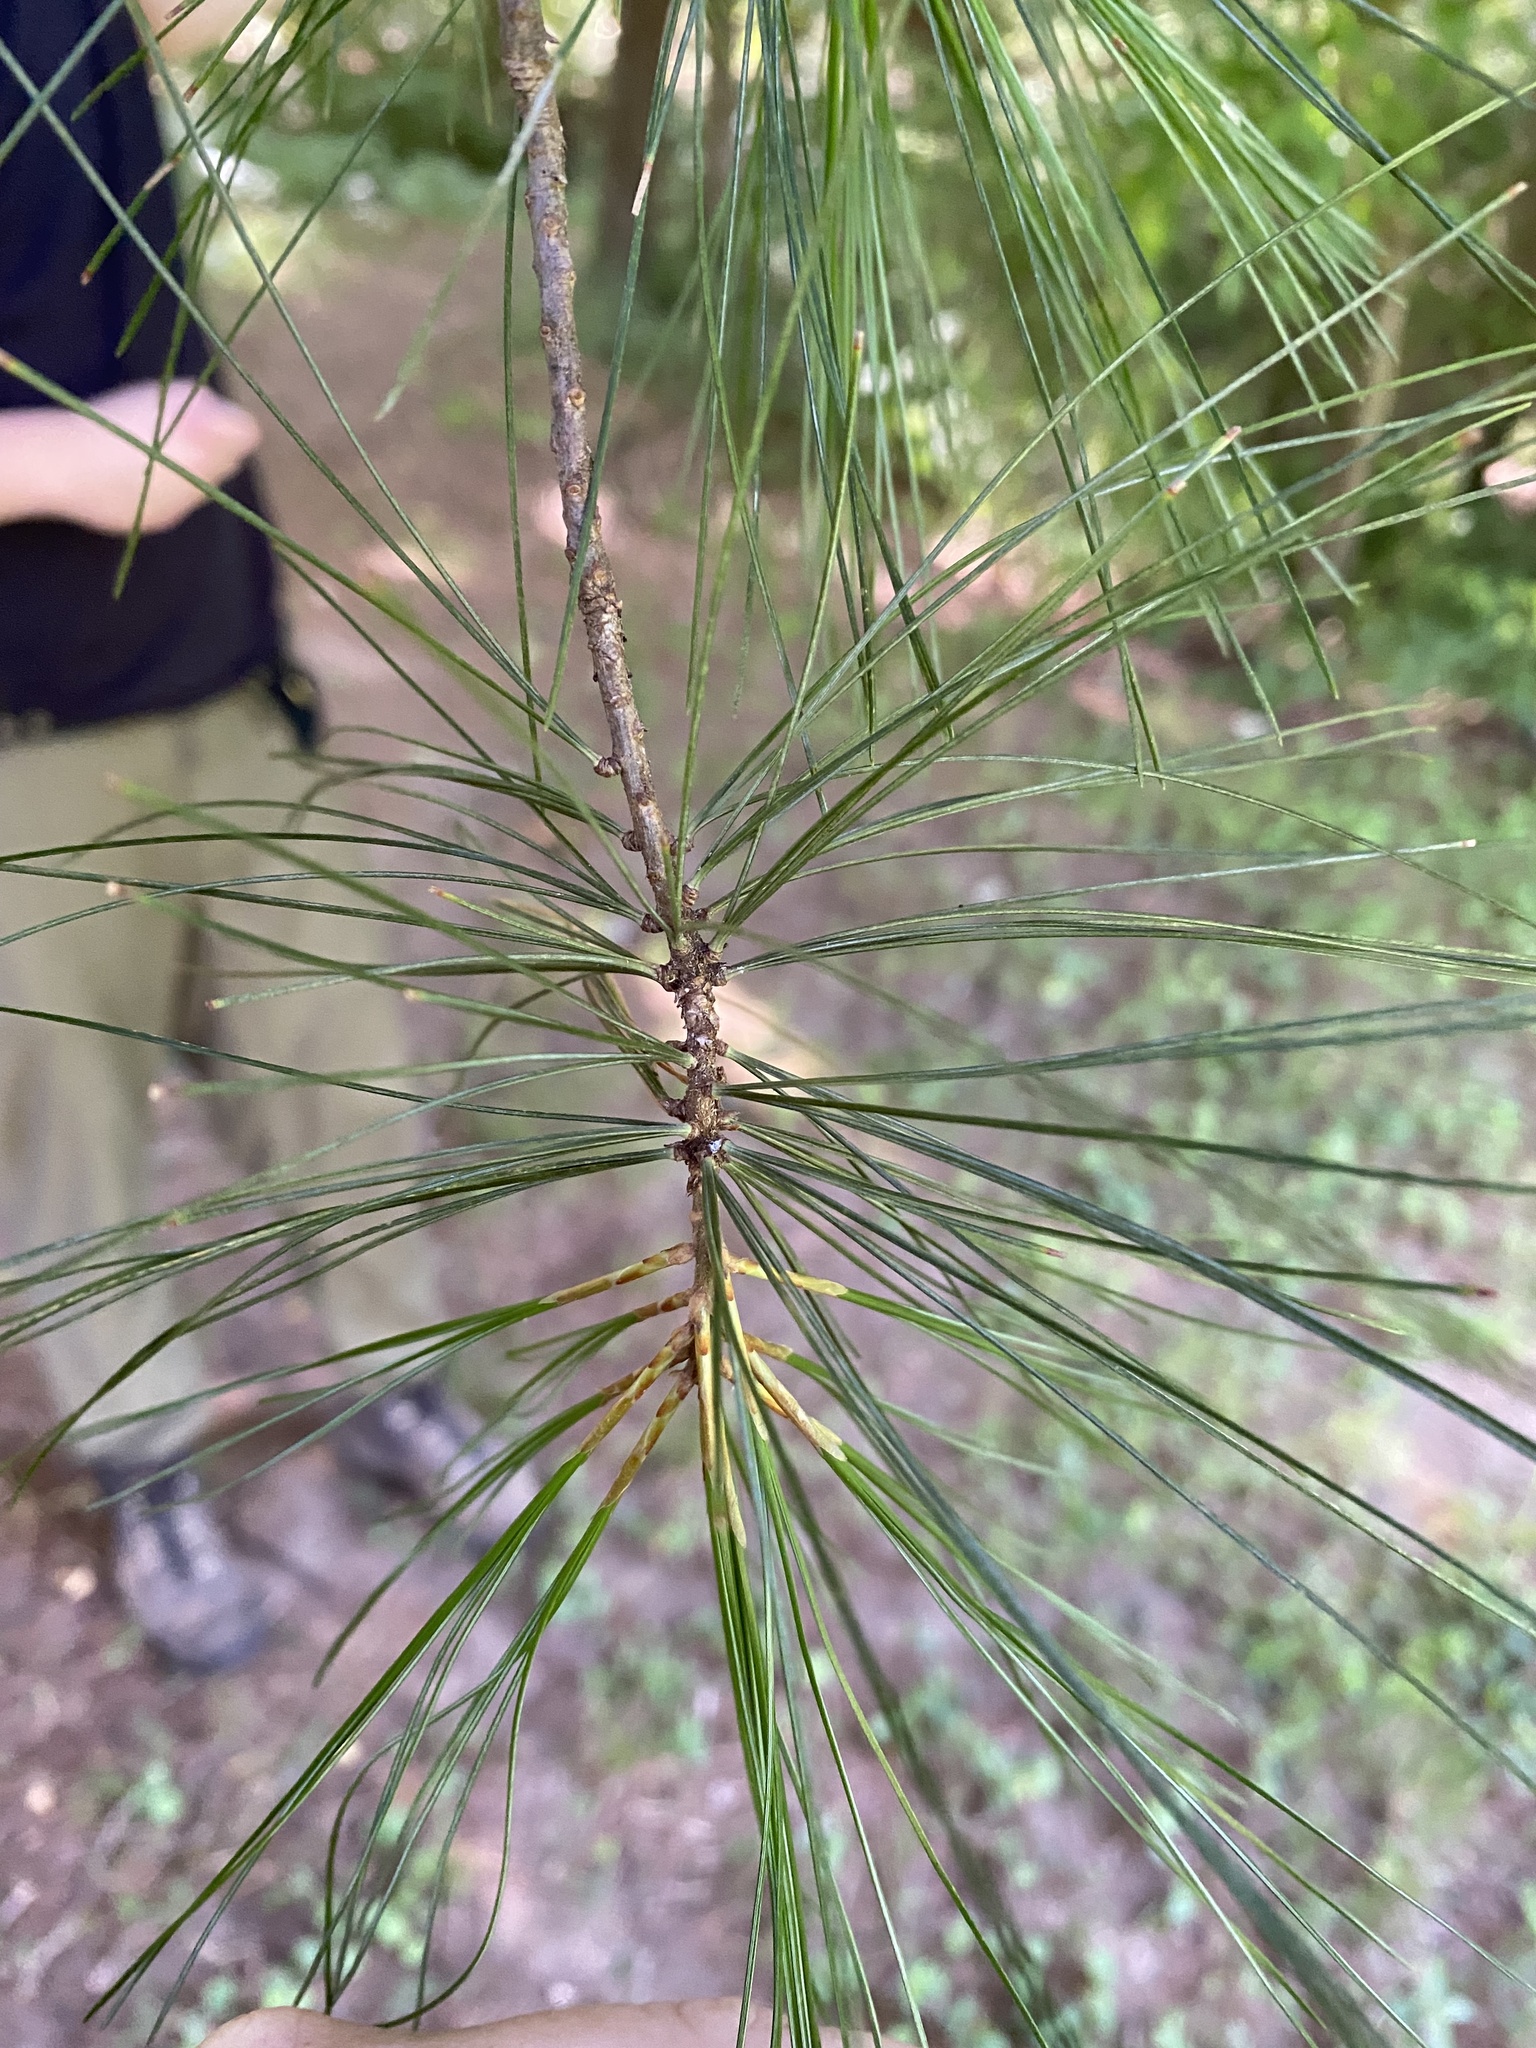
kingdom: Plantae
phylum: Tracheophyta
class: Pinopsida
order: Pinales
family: Pinaceae
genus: Pinus
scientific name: Pinus strobus
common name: Weymouth pine
